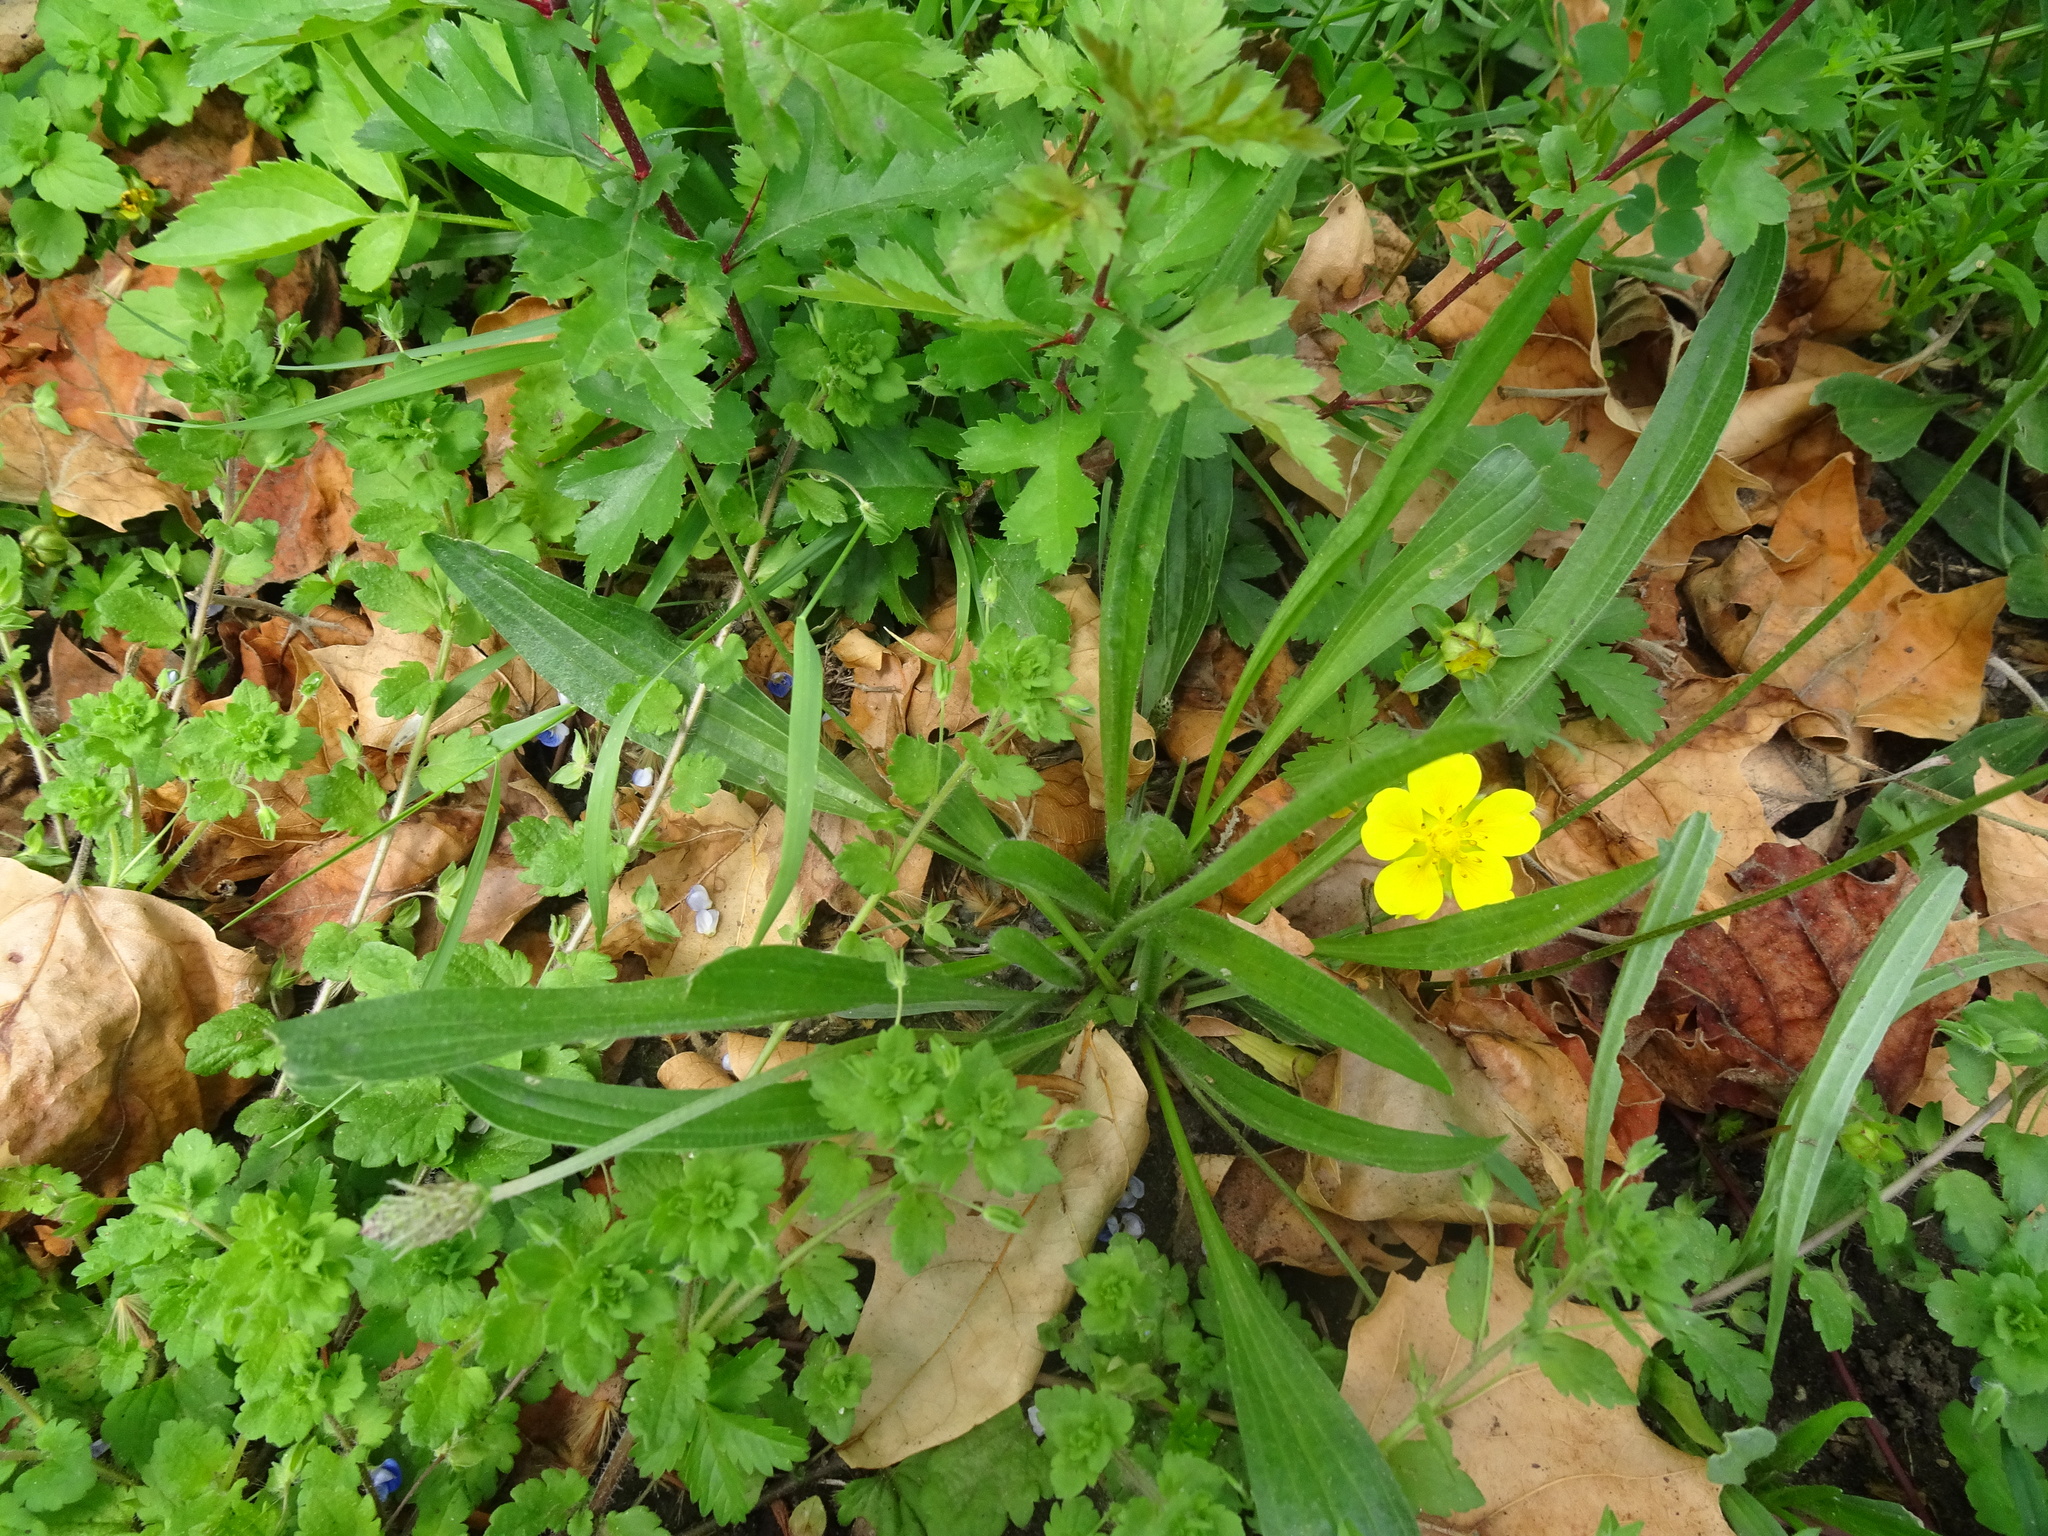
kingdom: Plantae
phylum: Tracheophyta
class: Magnoliopsida
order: Lamiales
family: Plantaginaceae
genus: Plantago
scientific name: Plantago lanceolata
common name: Ribwort plantain
